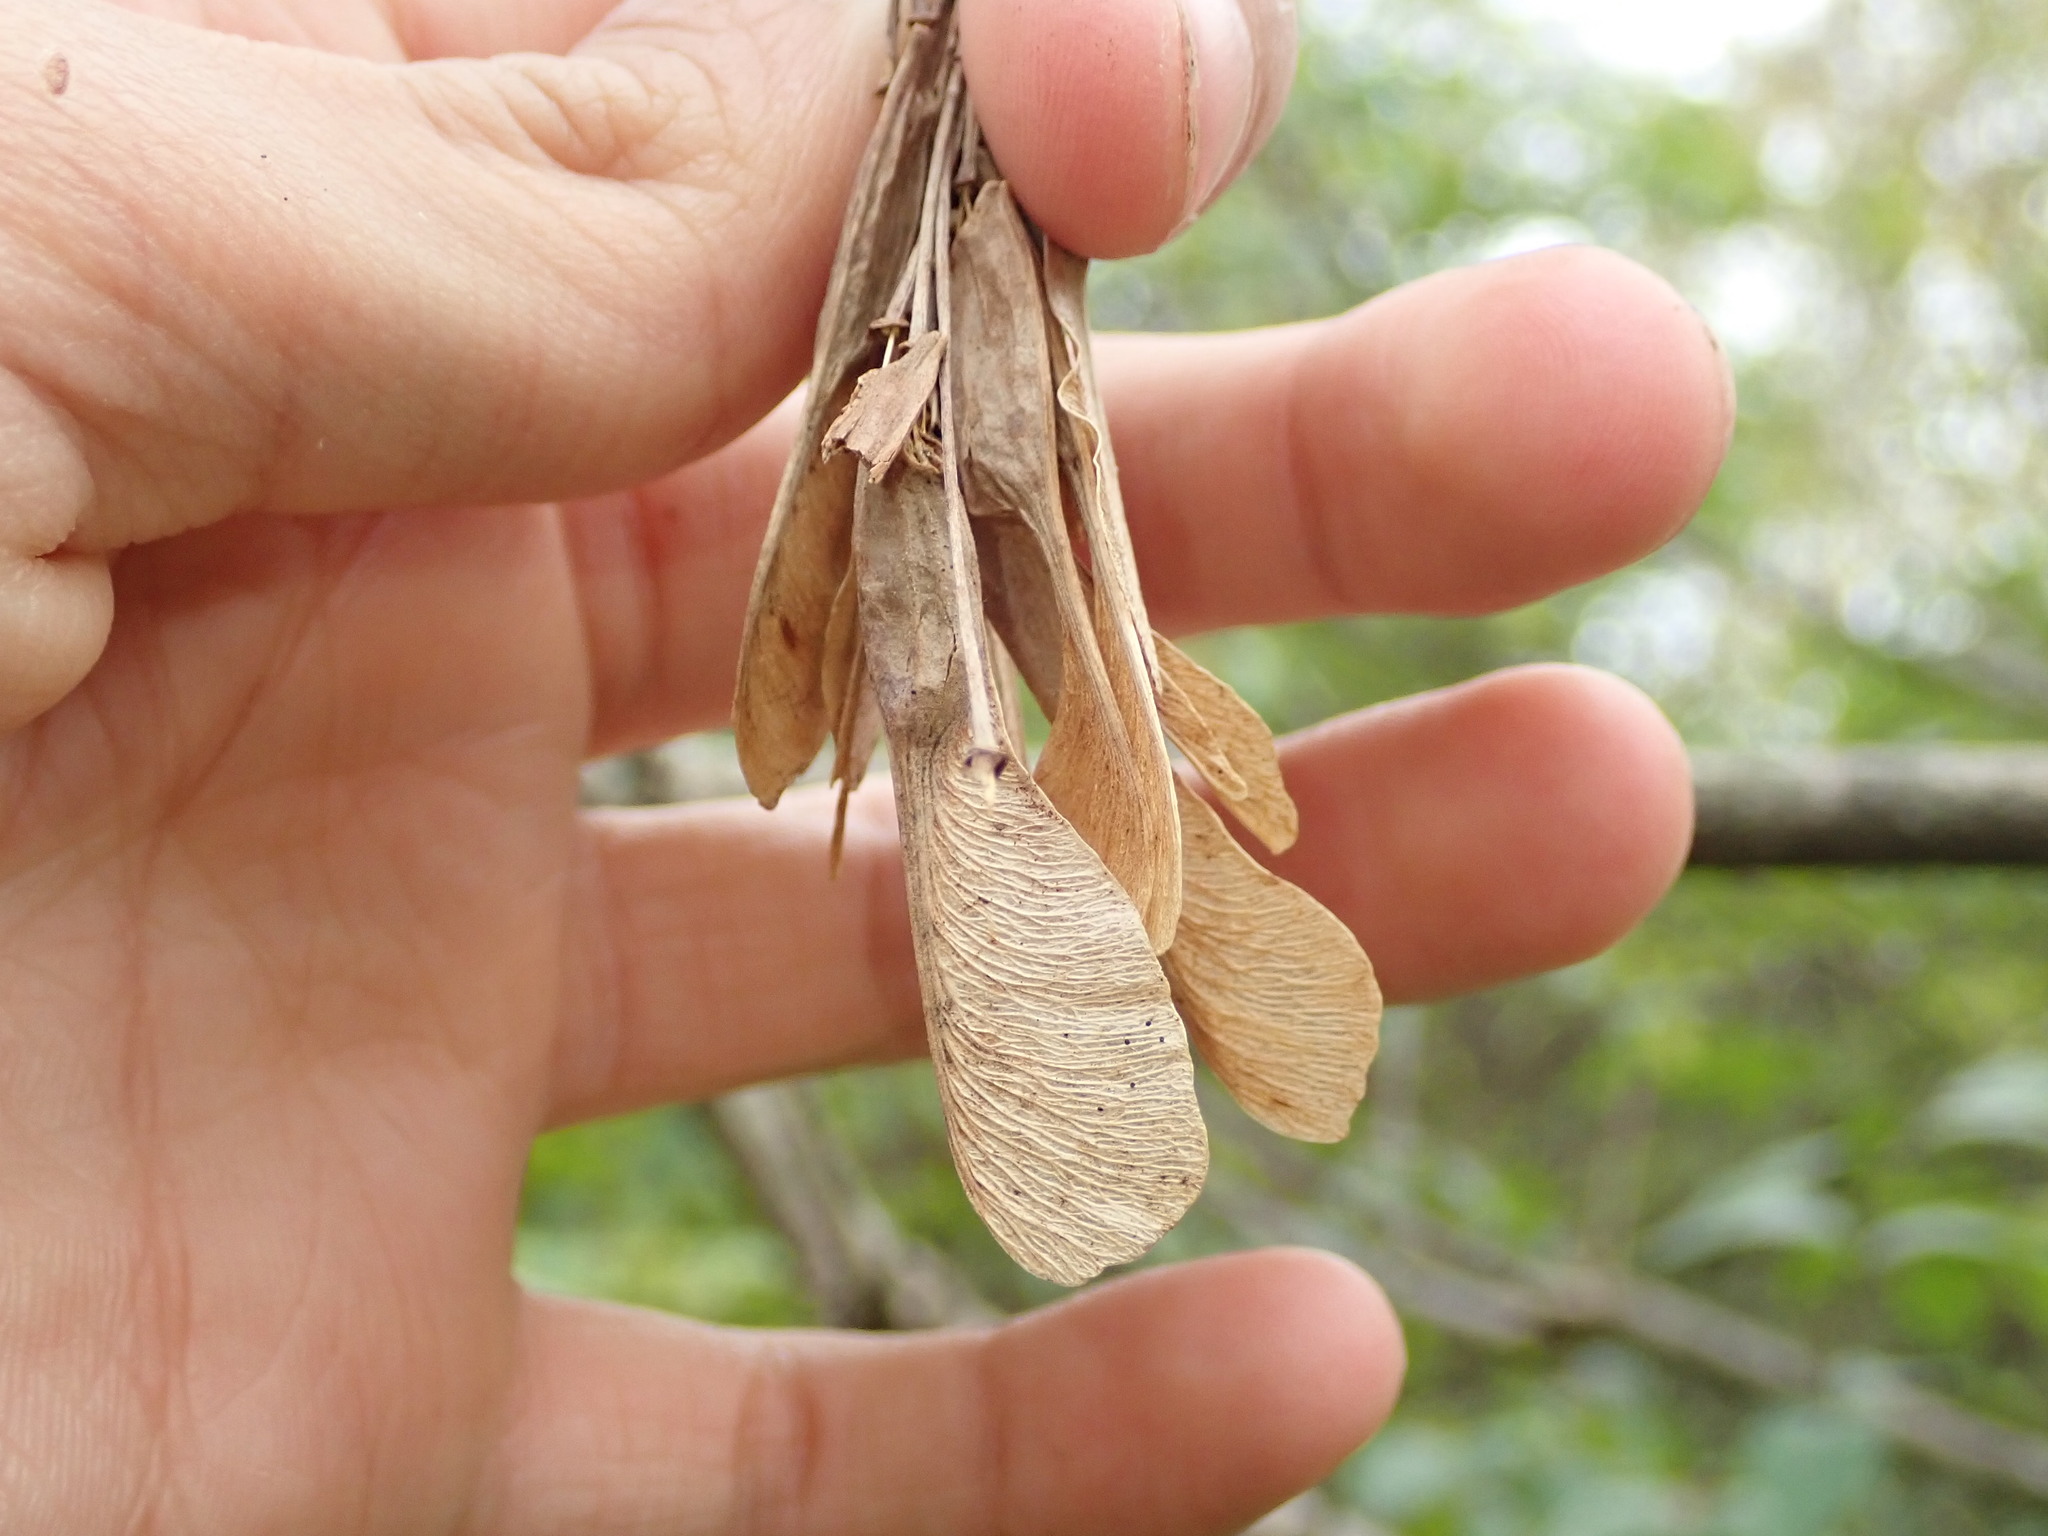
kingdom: Plantae
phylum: Tracheophyta
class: Magnoliopsida
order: Sapindales
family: Sapindaceae
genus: Acer
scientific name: Acer negundo
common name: Ashleaf maple
